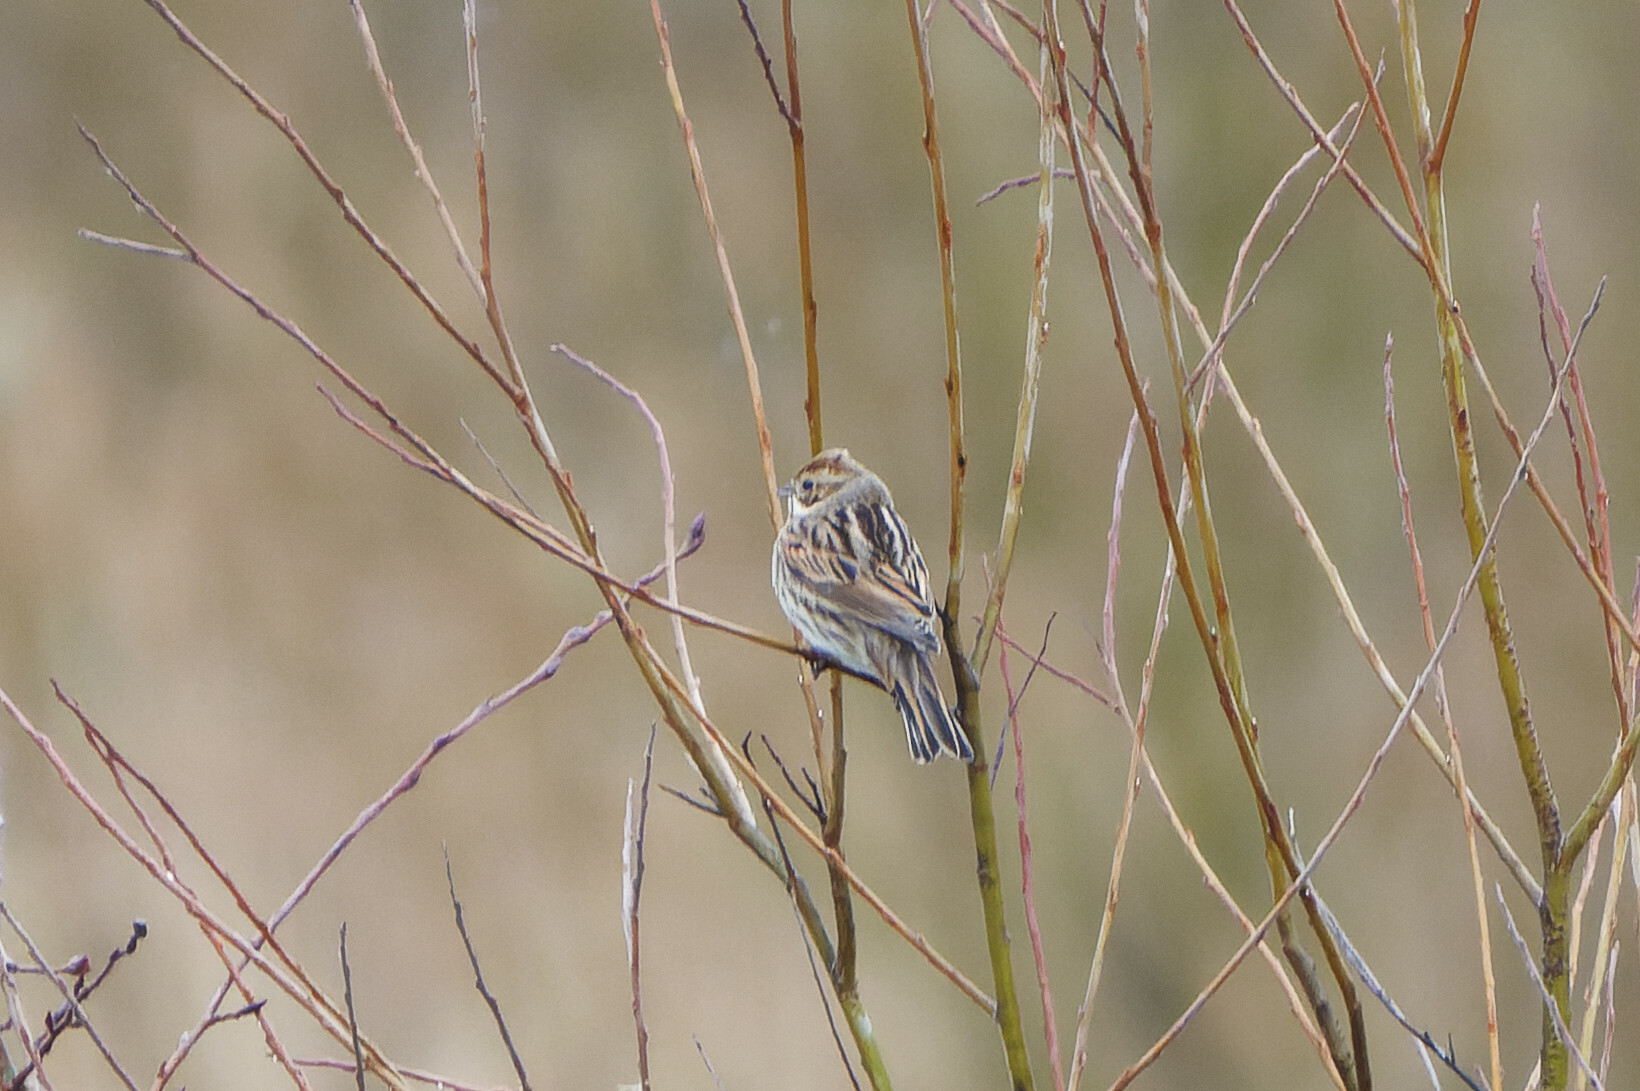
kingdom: Animalia
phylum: Chordata
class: Aves
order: Passeriformes
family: Emberizidae
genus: Emberiza
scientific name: Emberiza schoeniclus
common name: Reed bunting
